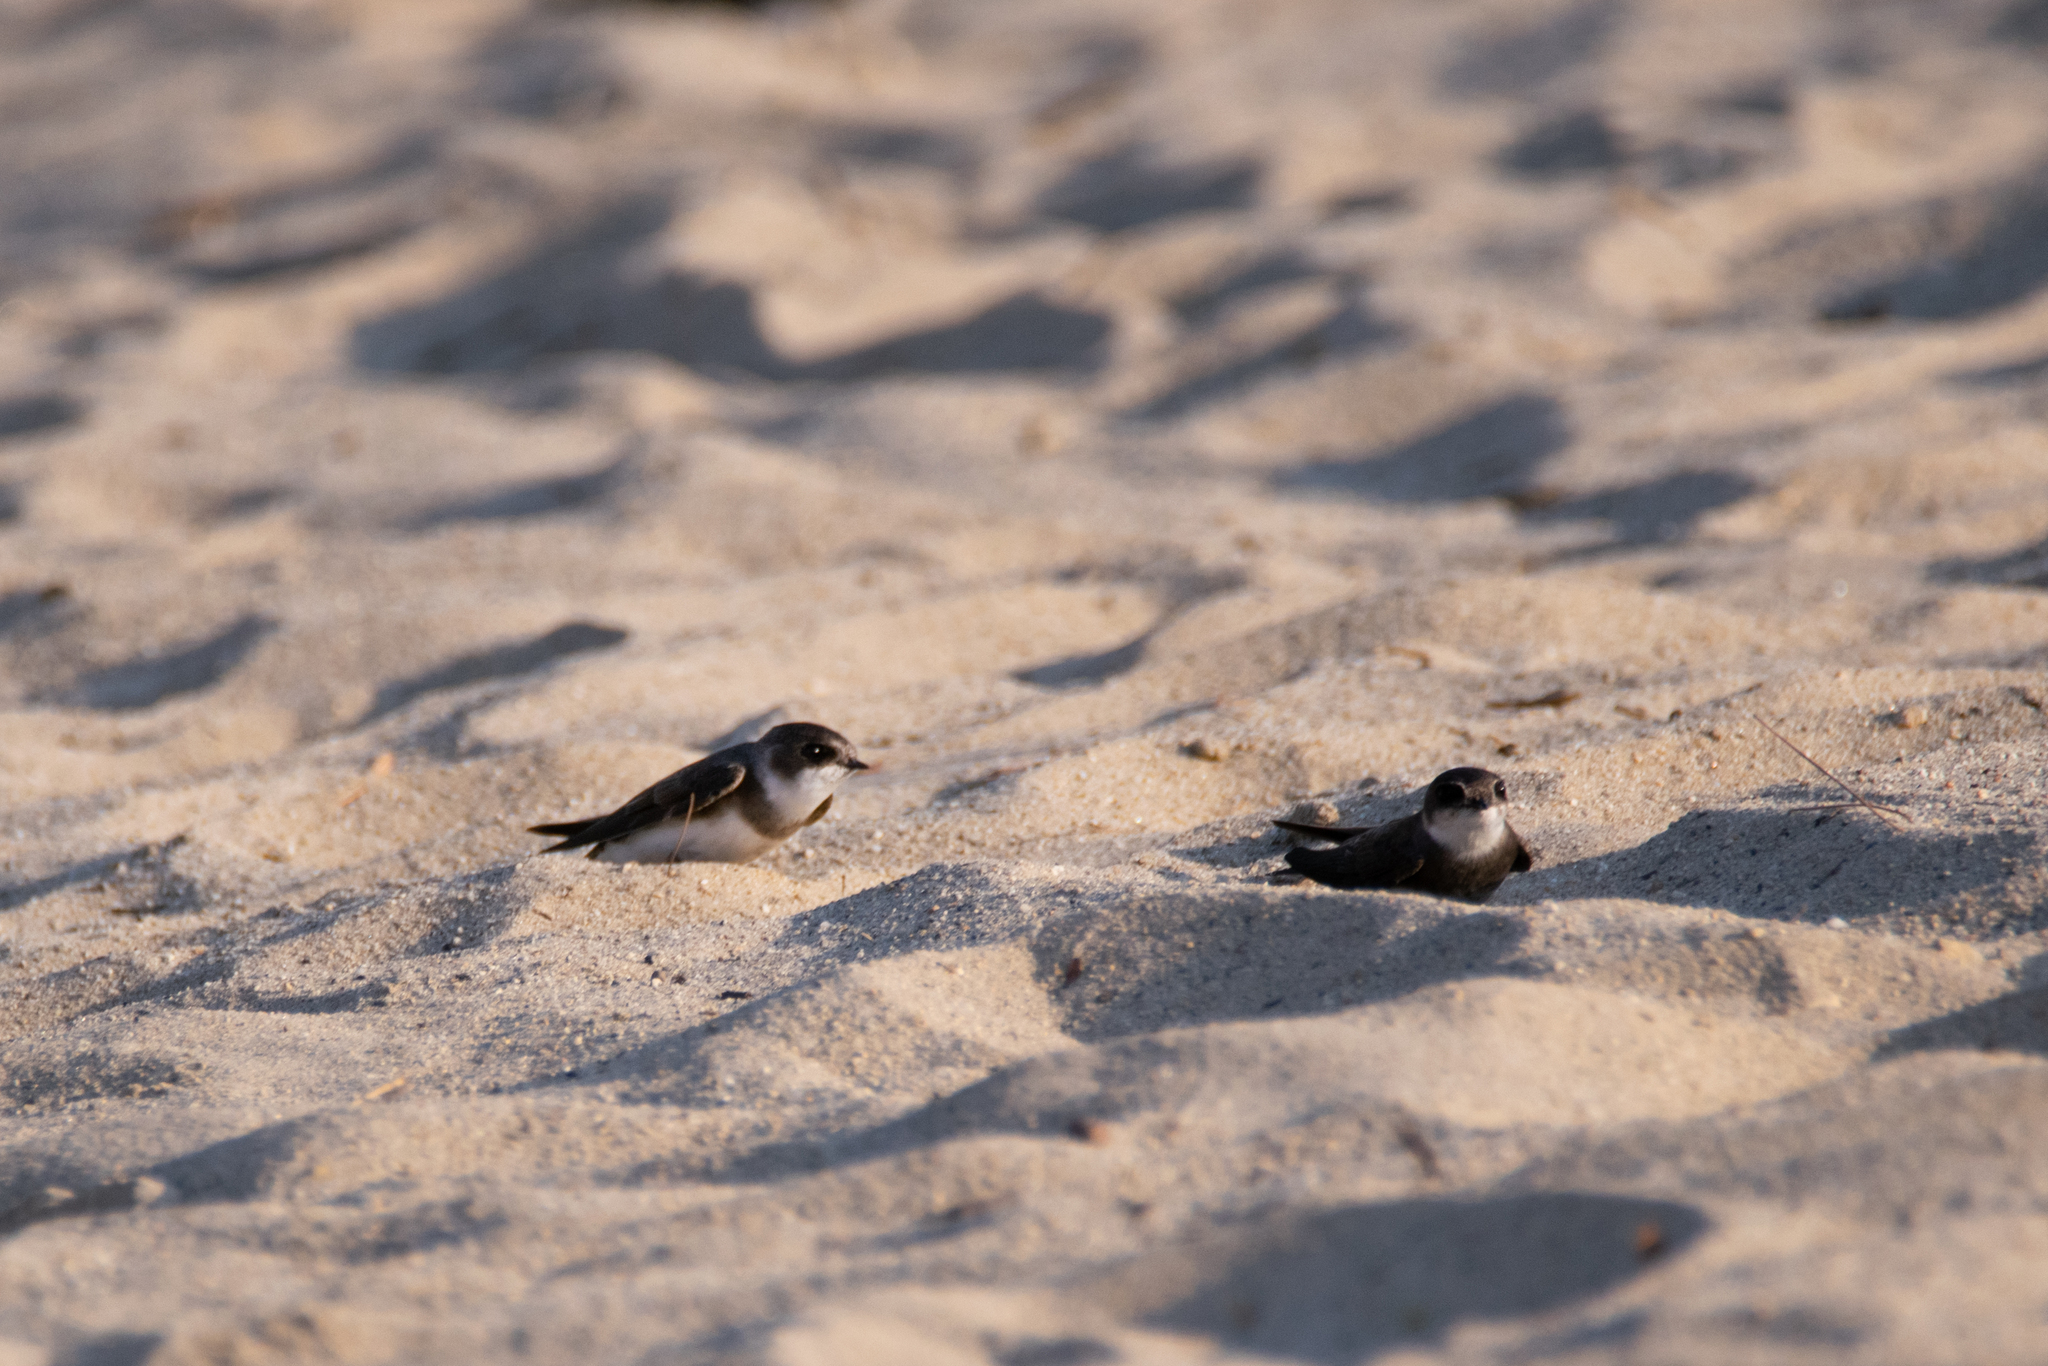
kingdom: Animalia
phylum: Chordata
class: Aves
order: Passeriformes
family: Hirundinidae
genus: Riparia
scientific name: Riparia riparia
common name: Sand martin
